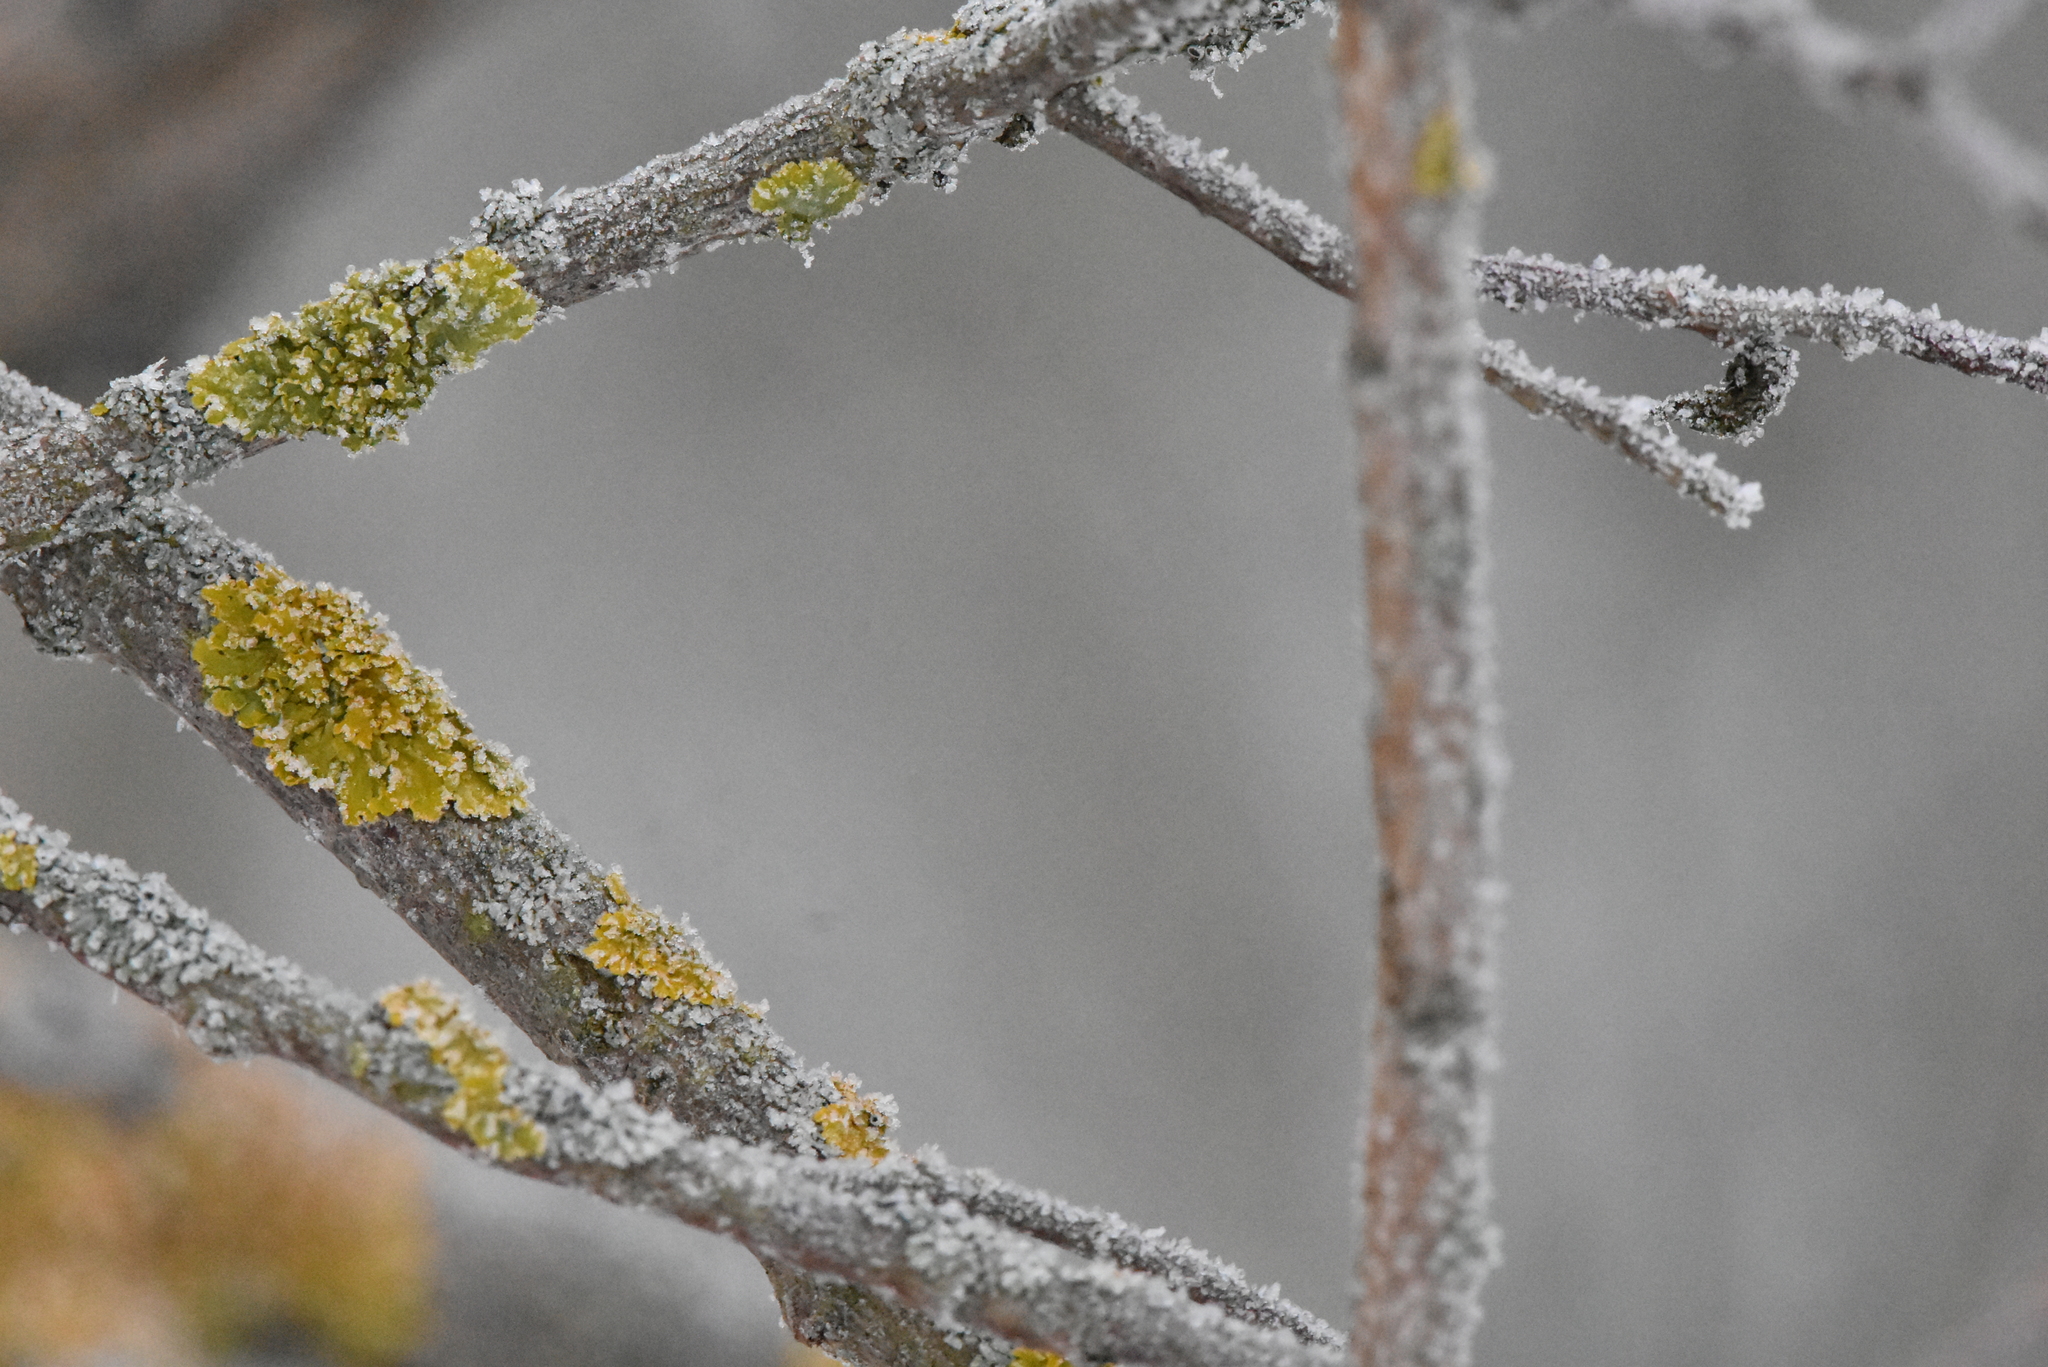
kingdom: Fungi
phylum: Ascomycota
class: Lecanoromycetes
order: Teloschistales
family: Teloschistaceae
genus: Xanthoria
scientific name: Xanthoria parietina
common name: Common orange lichen
